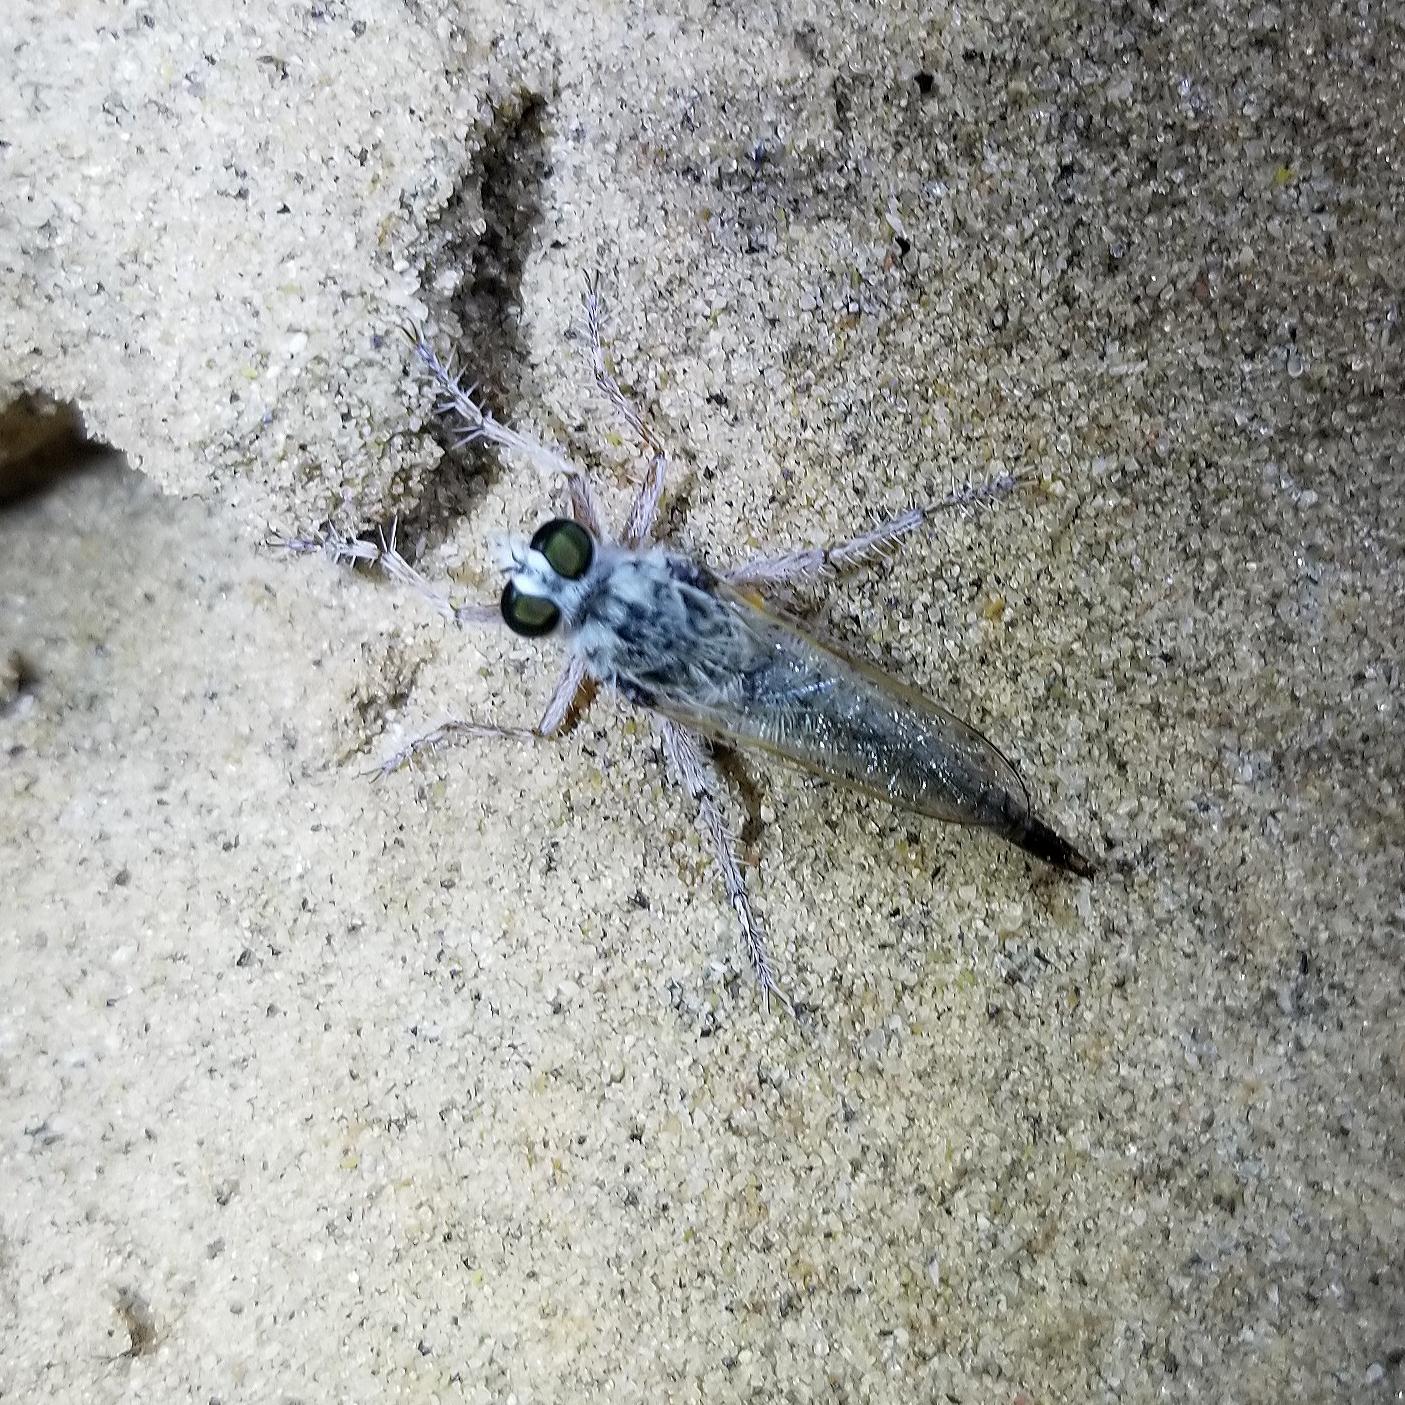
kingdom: Animalia
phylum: Arthropoda
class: Insecta
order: Diptera
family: Asilidae
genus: Proctacanthella
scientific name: Proctacanthella tolandi
